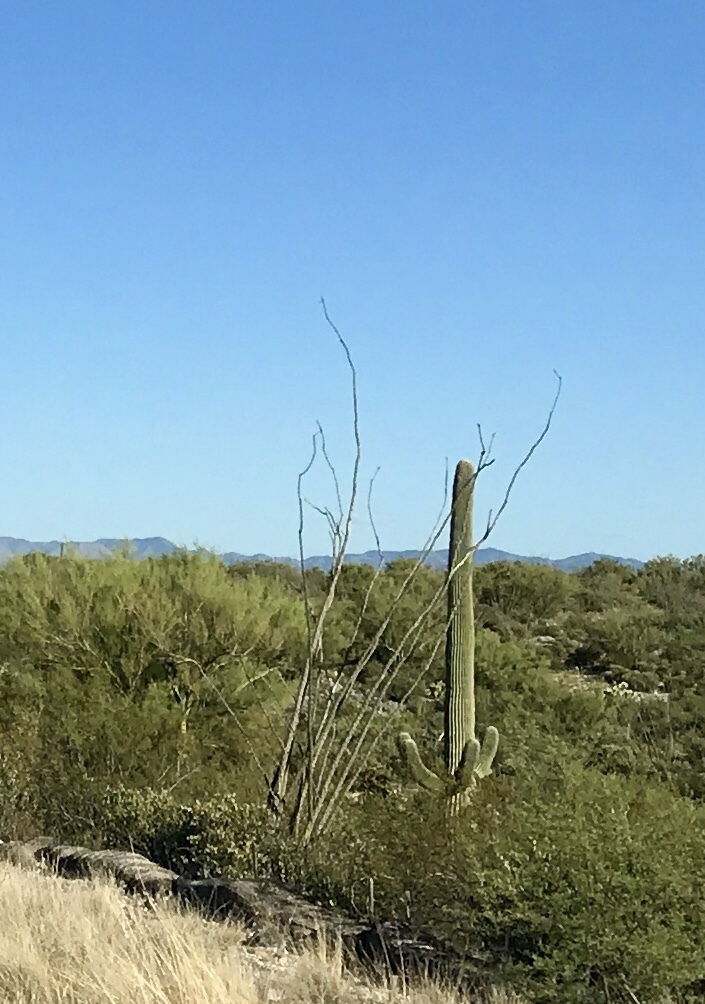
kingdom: Plantae
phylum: Tracheophyta
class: Magnoliopsida
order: Ericales
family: Fouquieriaceae
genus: Fouquieria
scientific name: Fouquieria splendens
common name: Vine-cactus
